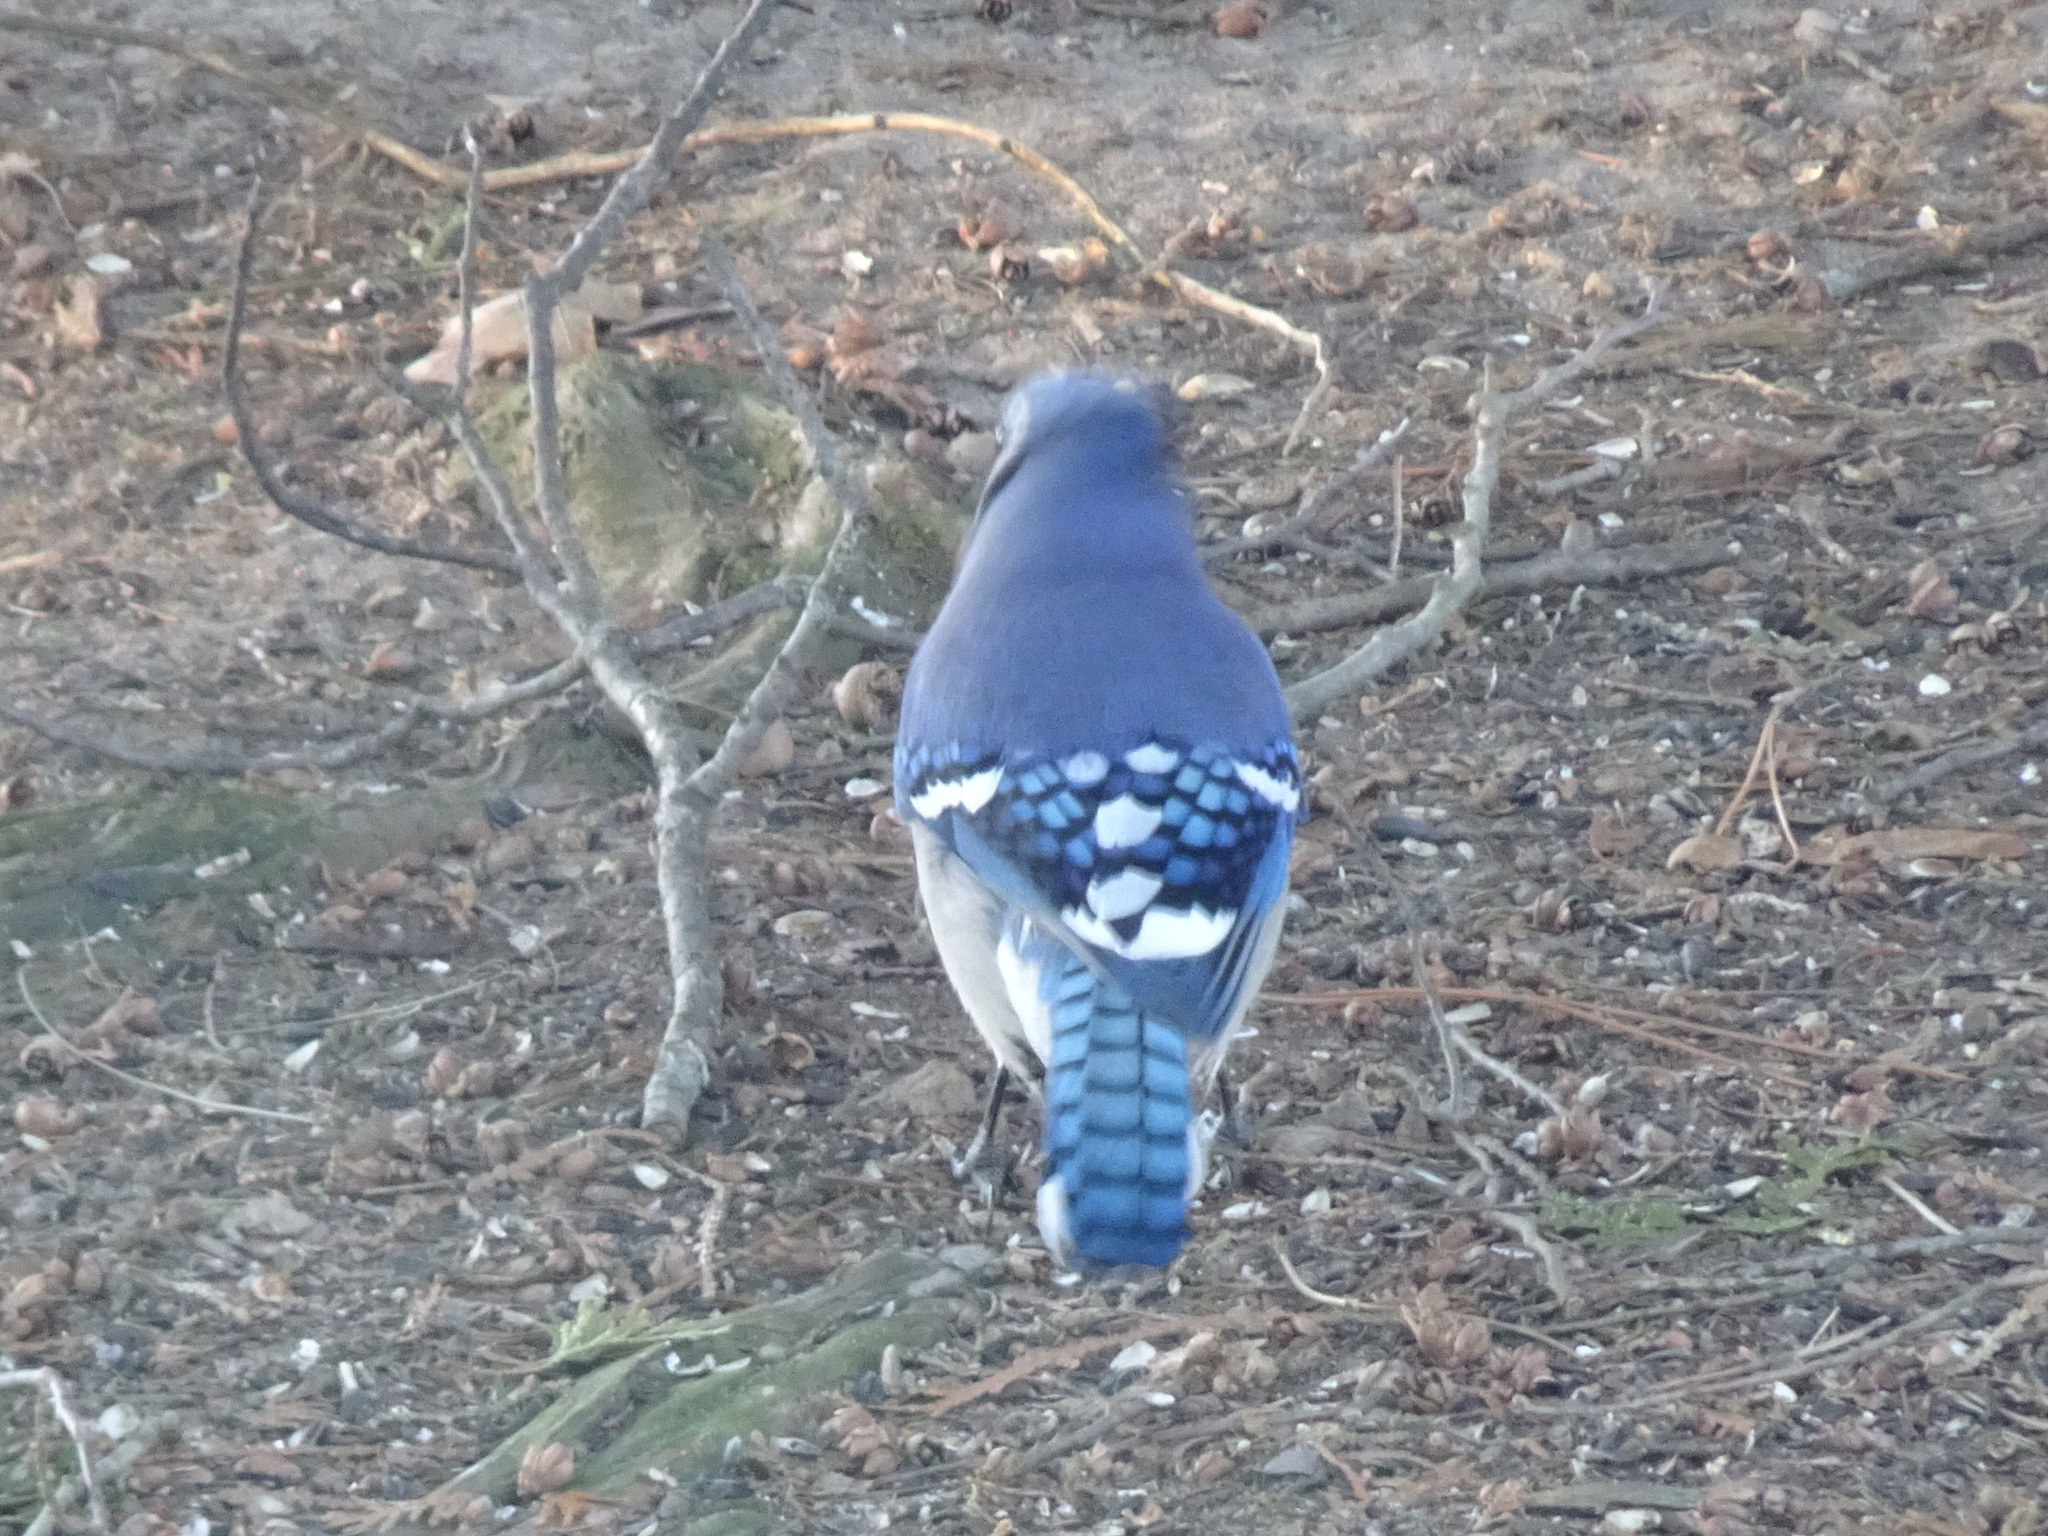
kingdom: Animalia
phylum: Chordata
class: Aves
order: Passeriformes
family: Corvidae
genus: Cyanocitta
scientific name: Cyanocitta cristata
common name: Blue jay
